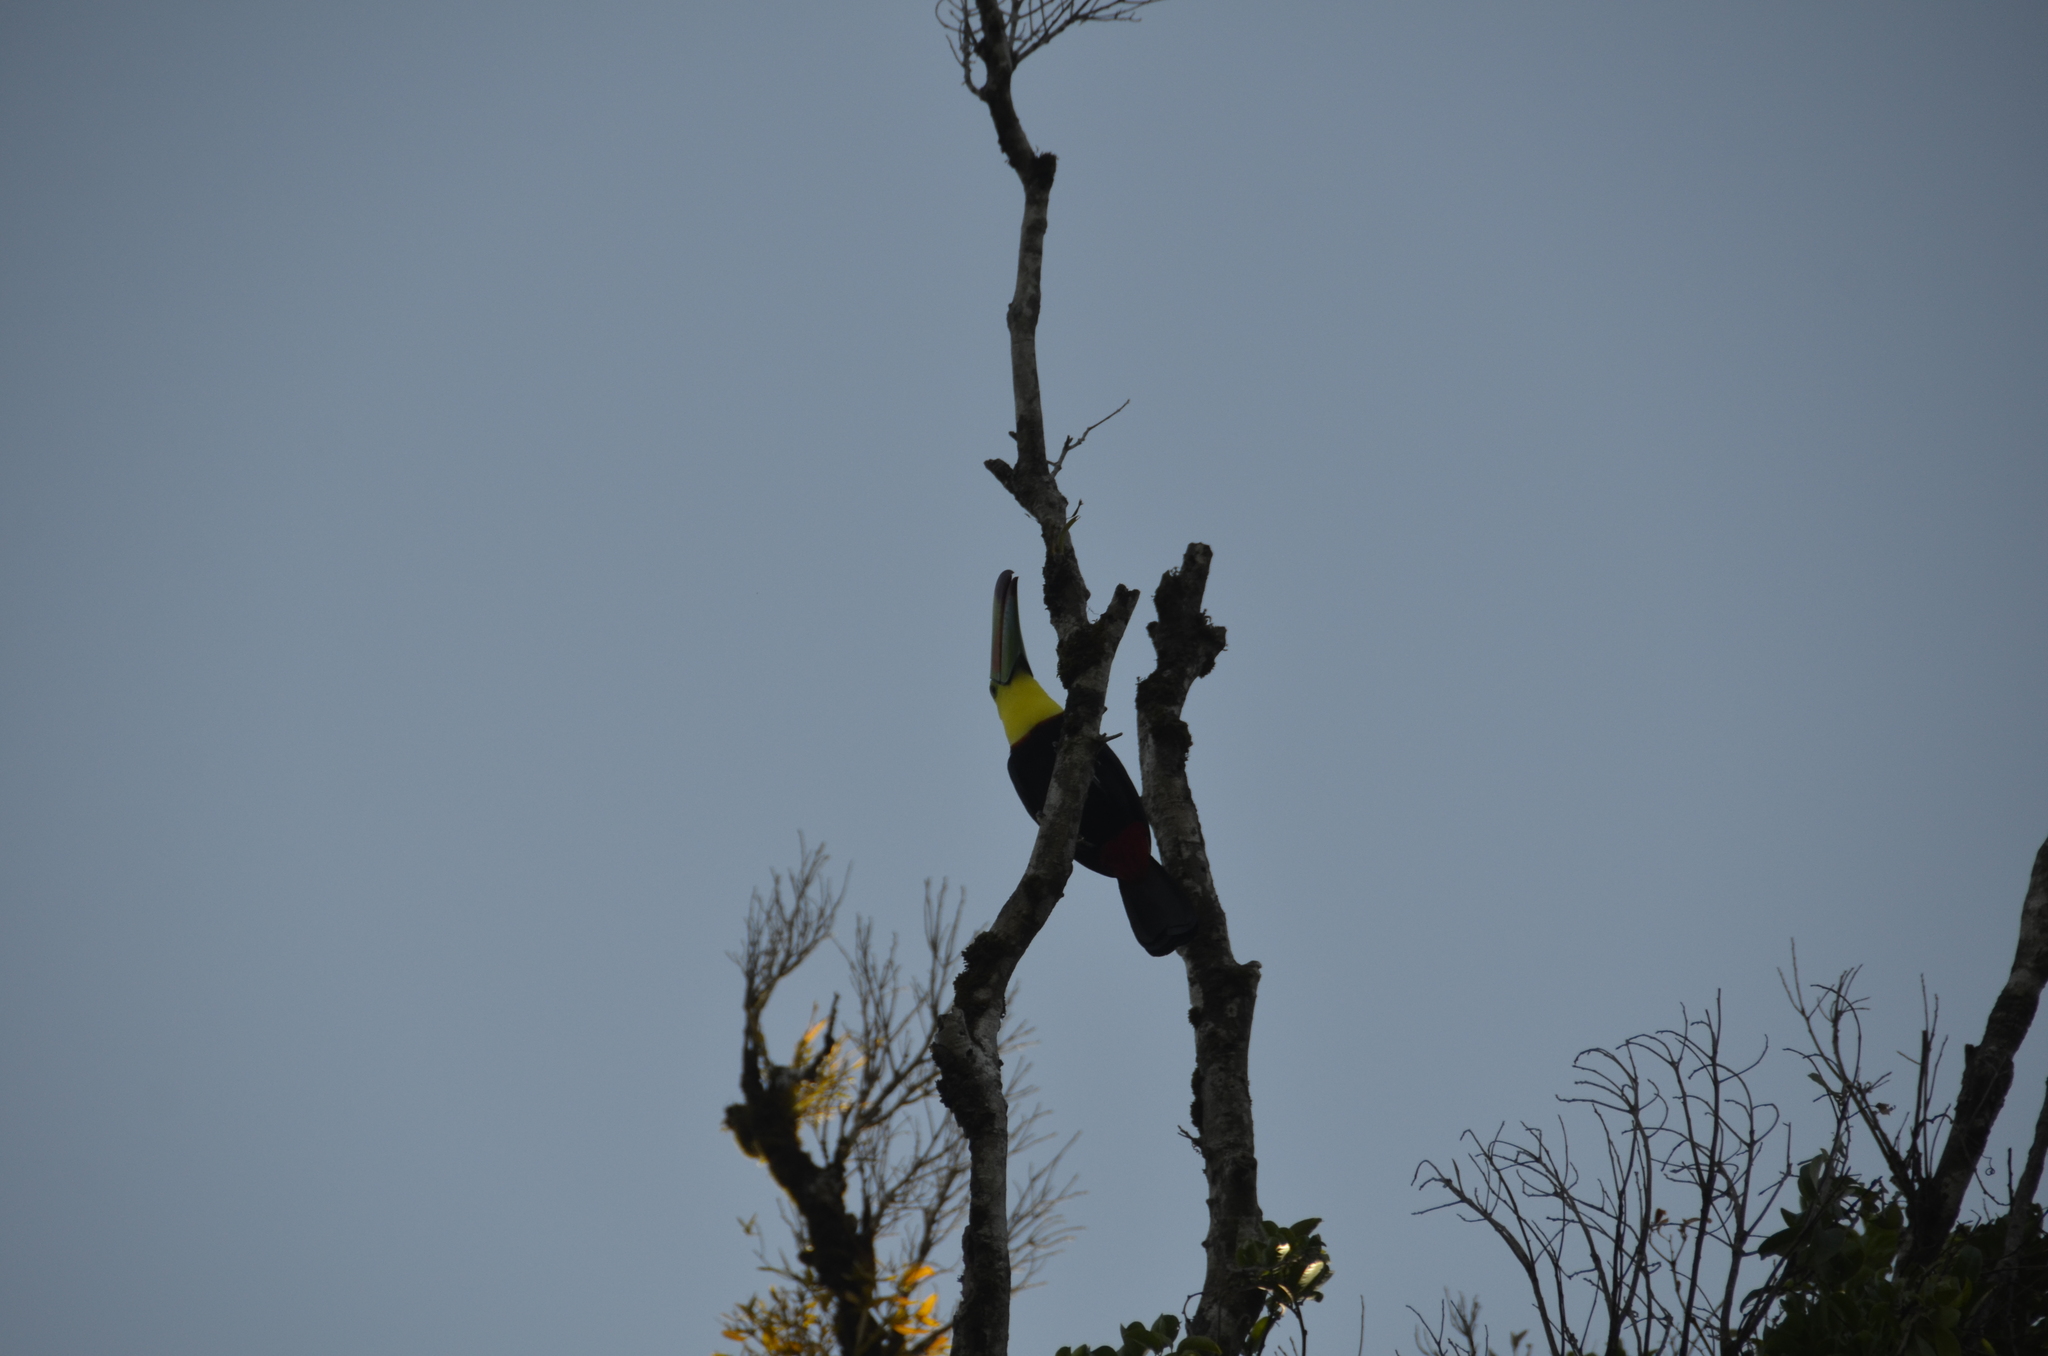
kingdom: Animalia
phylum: Chordata
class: Aves
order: Piciformes
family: Ramphastidae
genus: Ramphastos
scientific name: Ramphastos sulfuratus
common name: Keel-billed toucan
